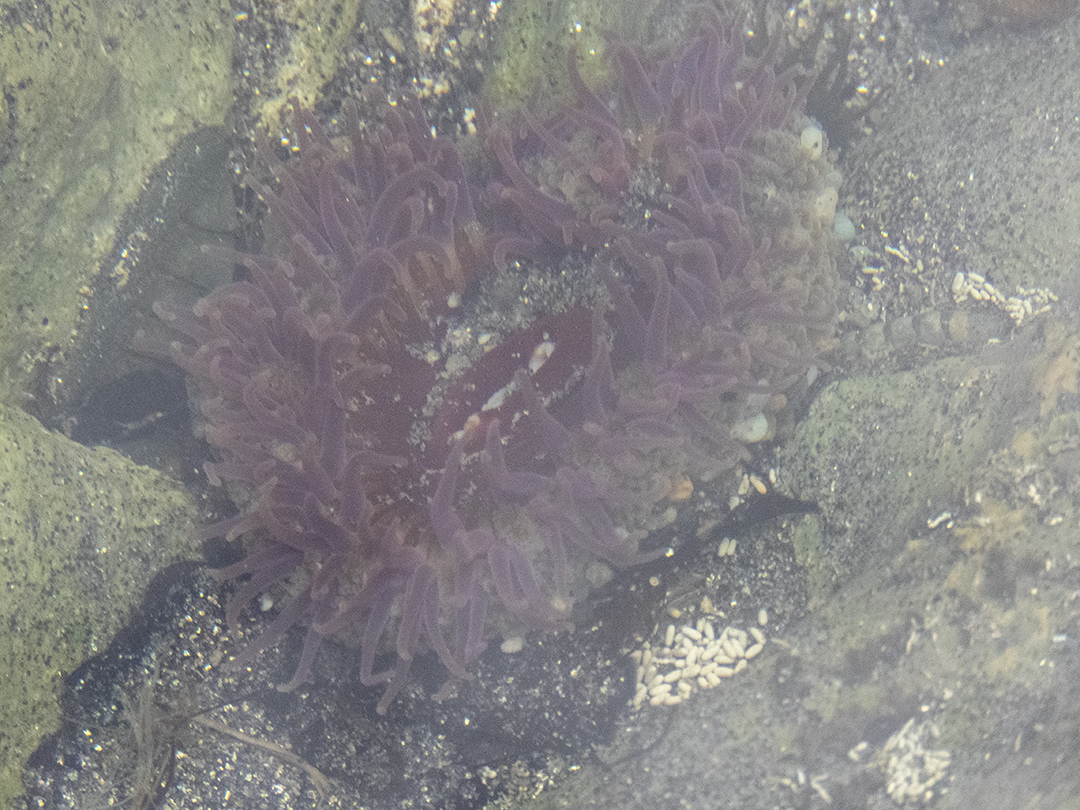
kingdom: Animalia
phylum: Cnidaria
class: Anthozoa
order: Actiniaria
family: Actiniidae
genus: Oulactis
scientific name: Oulactis magna
